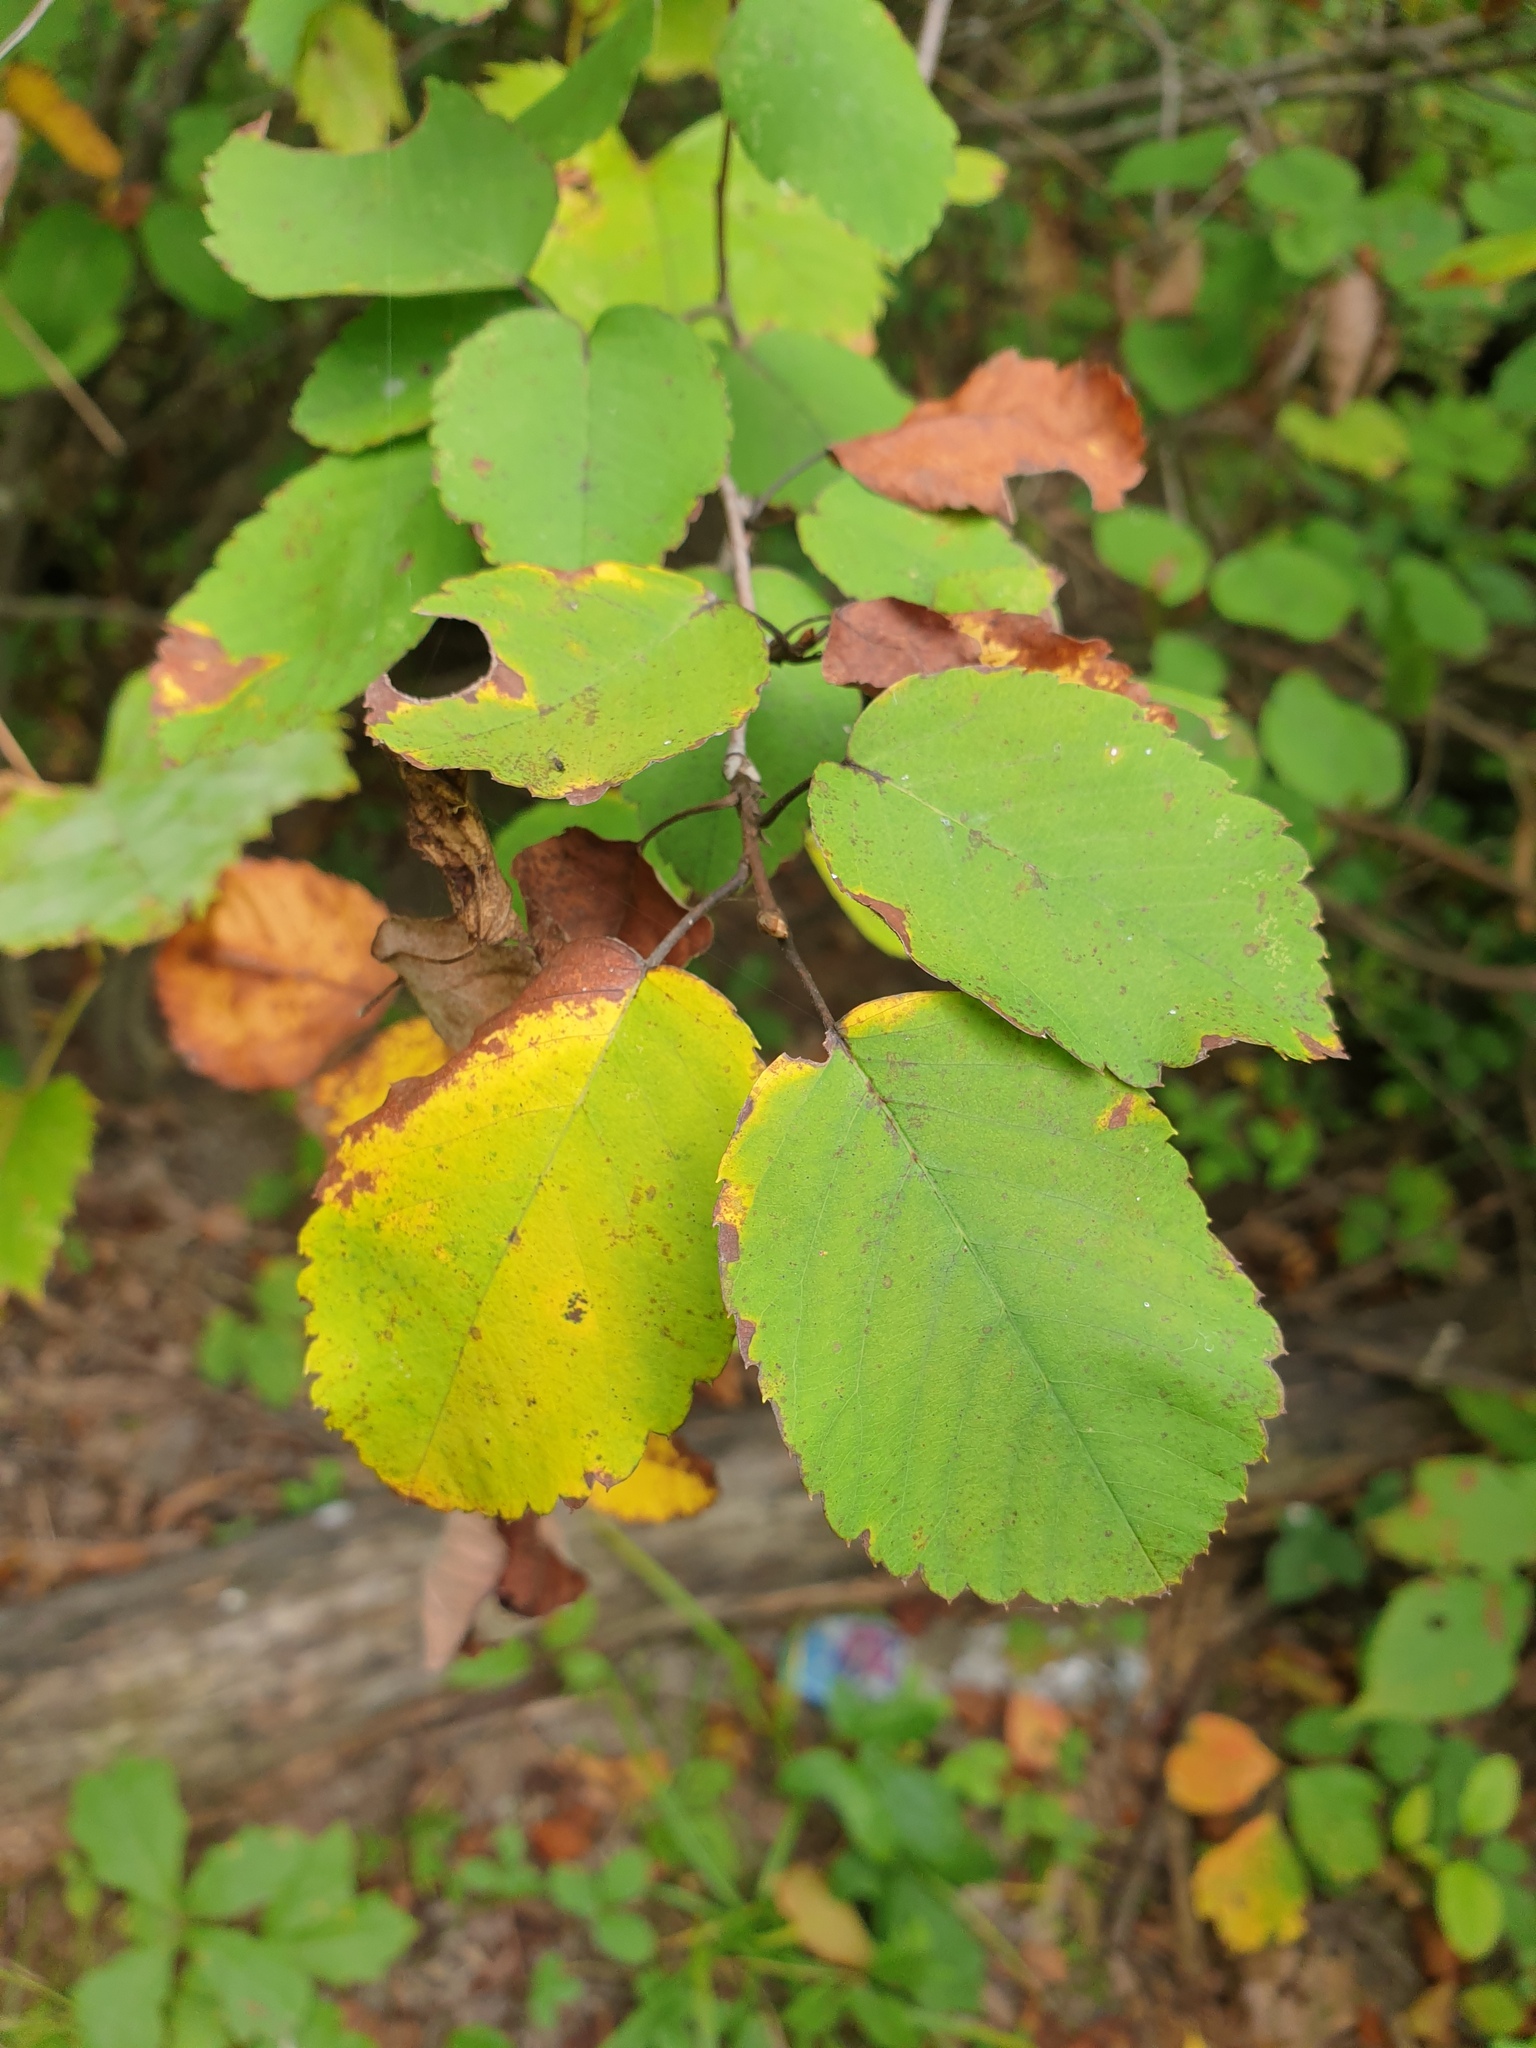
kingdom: Plantae
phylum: Tracheophyta
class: Magnoliopsida
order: Rosales
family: Rosaceae
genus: Amelanchier
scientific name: Amelanchier sanguinea
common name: Huron serviceberry
